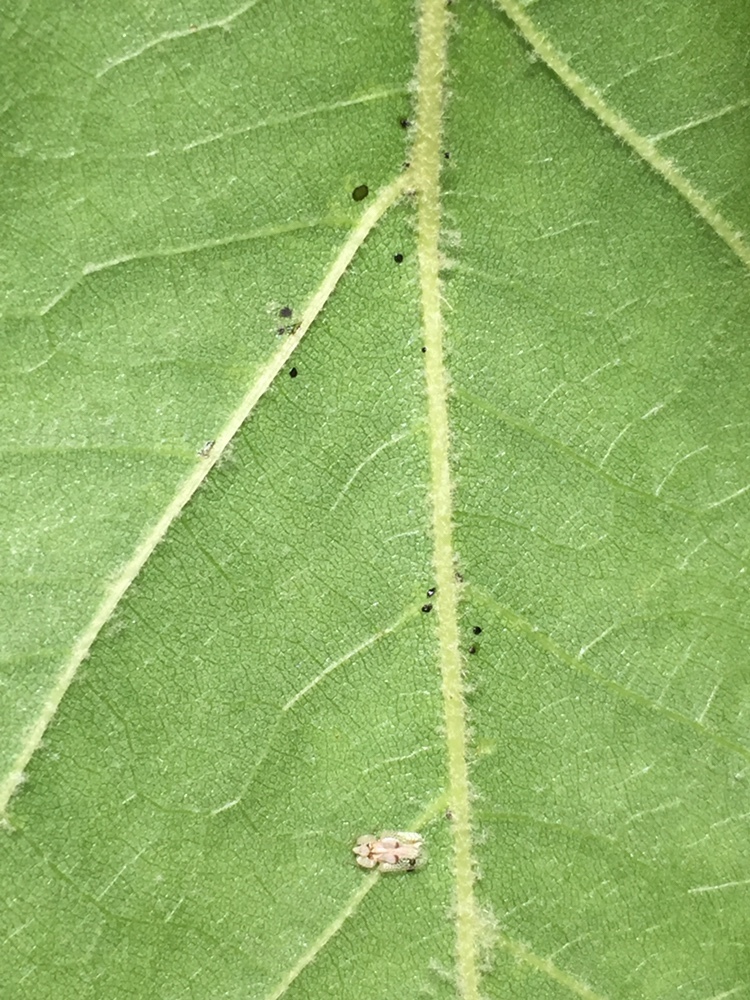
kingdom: Animalia
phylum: Arthropoda
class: Insecta
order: Hemiptera
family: Tingidae
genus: Corythucha
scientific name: Corythucha ciliata
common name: Sycamore lace bug
